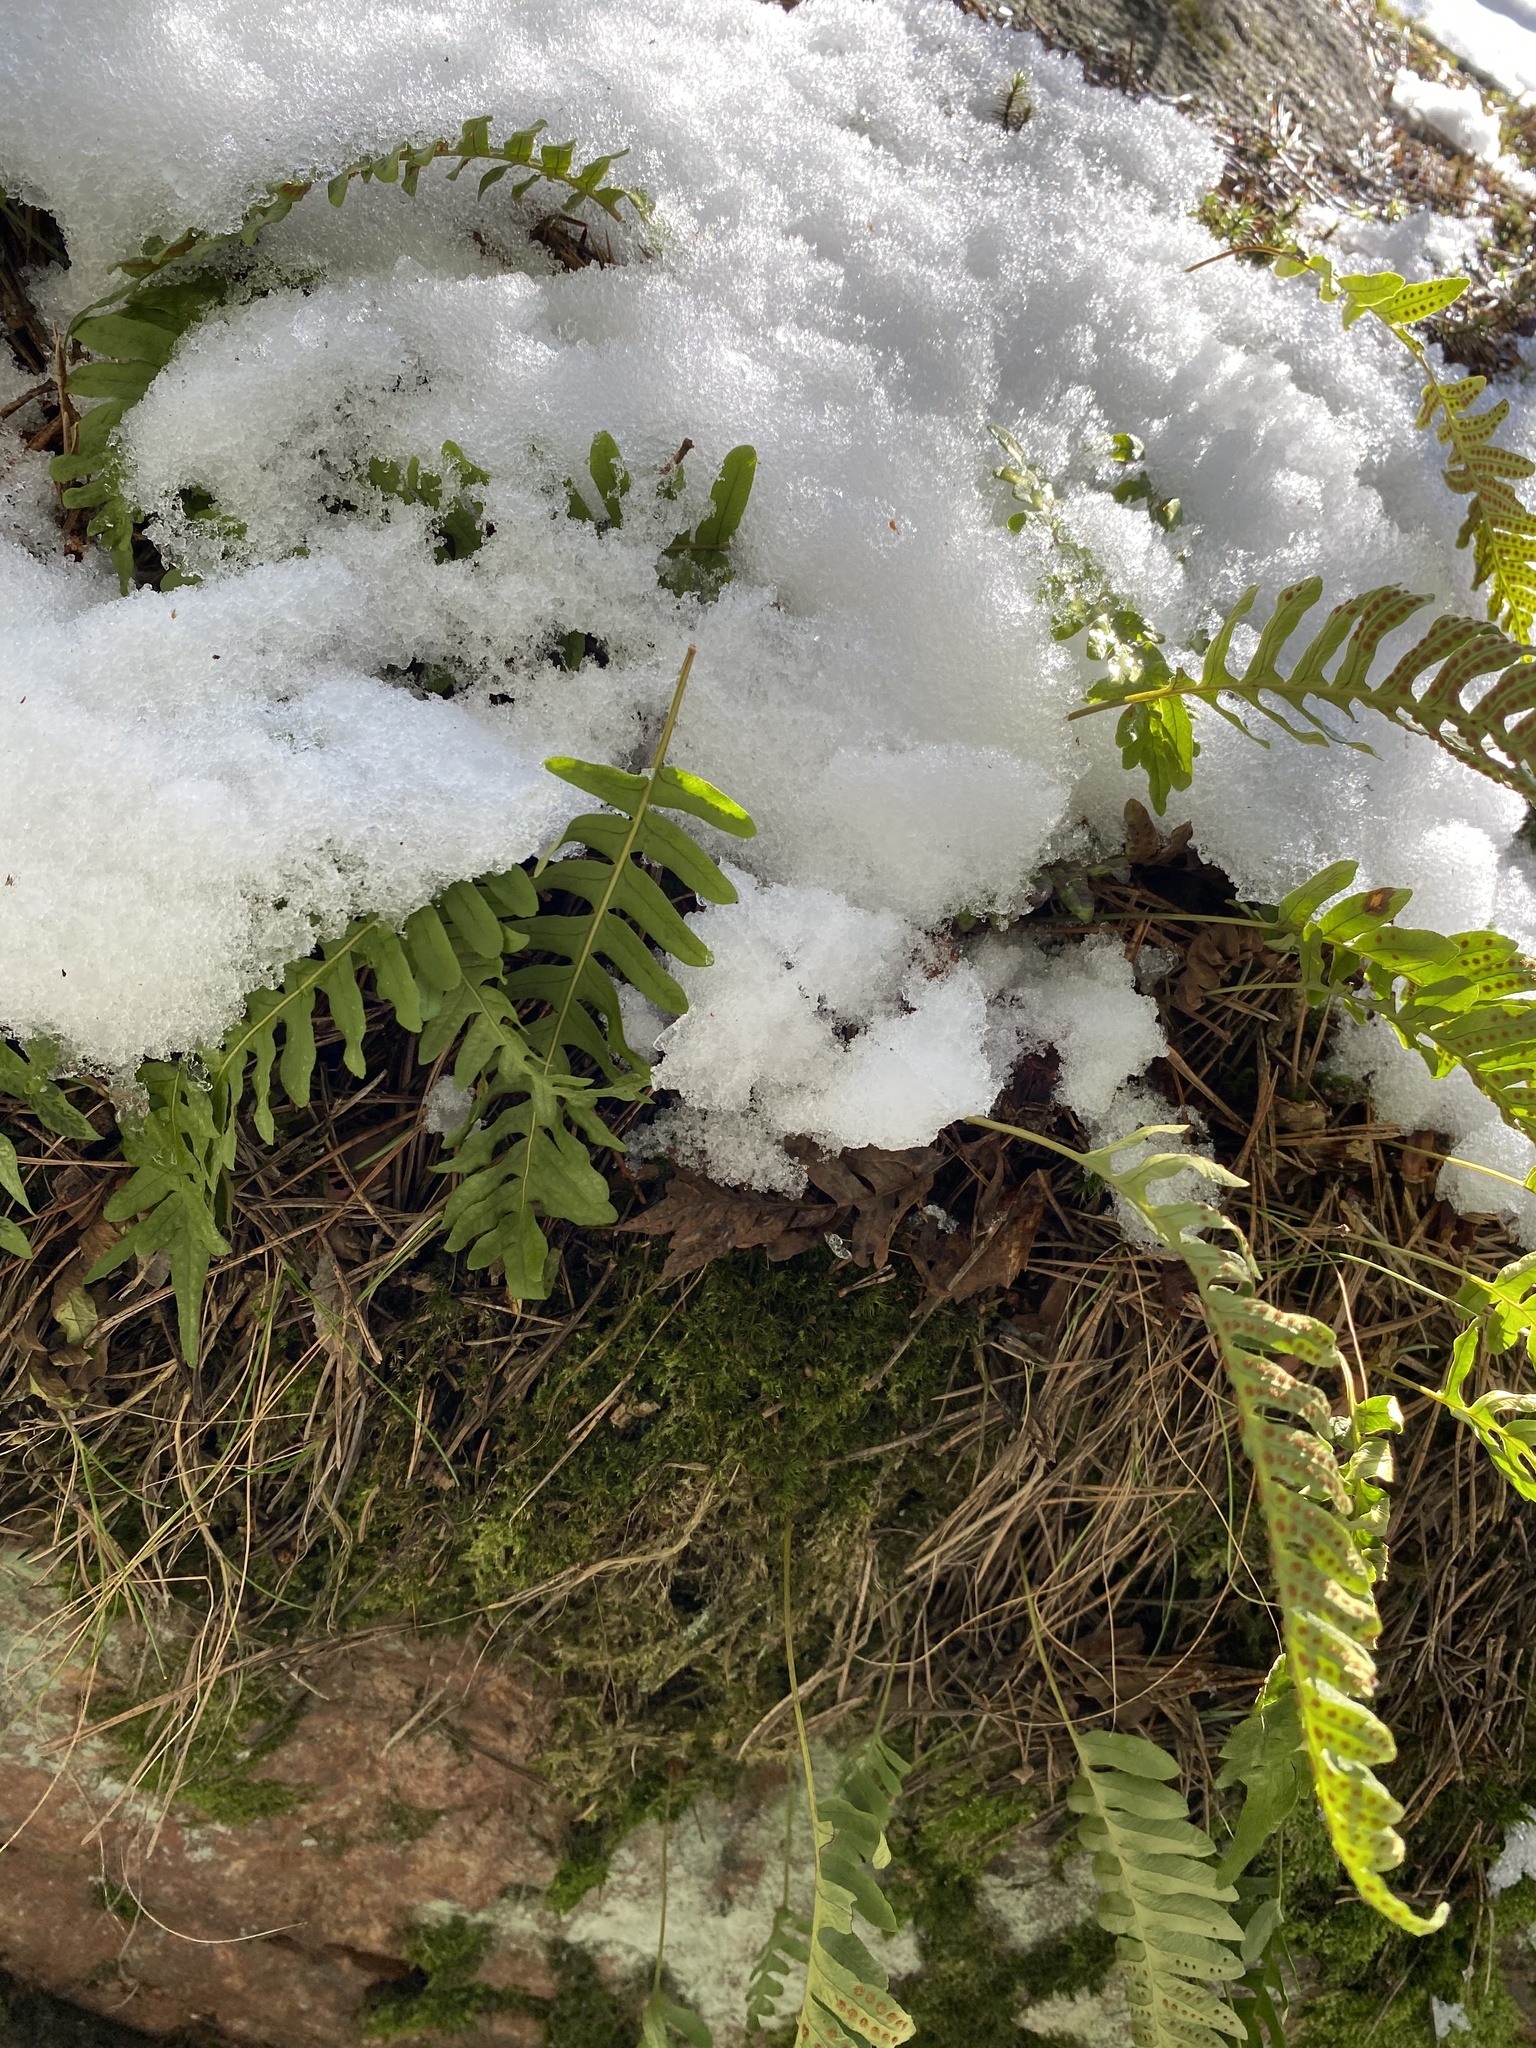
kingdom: Plantae
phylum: Tracheophyta
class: Polypodiopsida
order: Polypodiales
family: Polypodiaceae
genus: Polypodium
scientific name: Polypodium vulgare
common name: Common polypody
